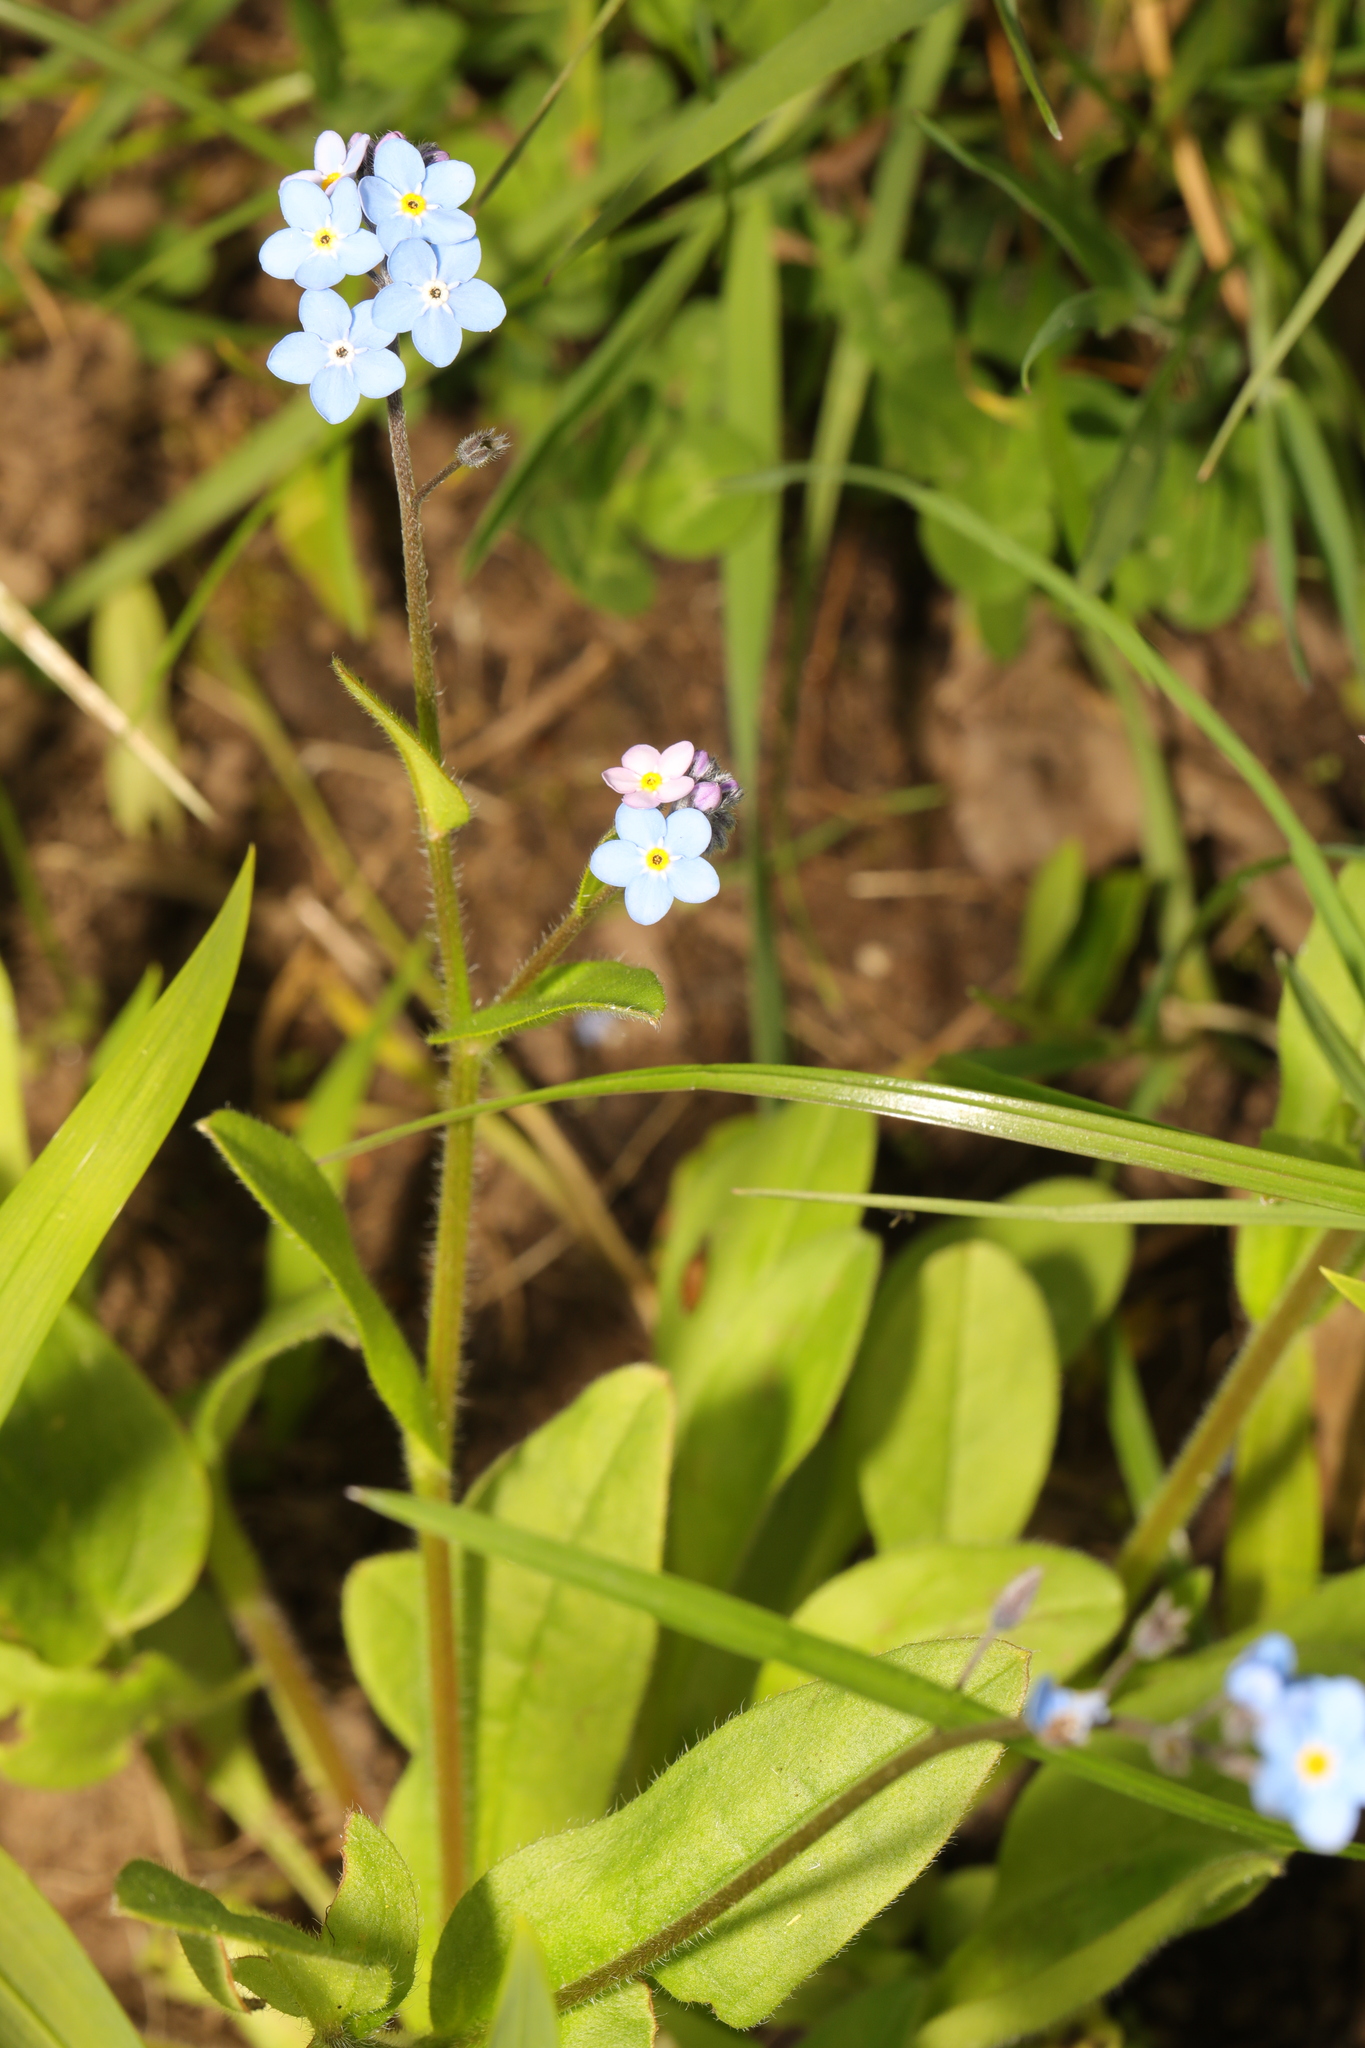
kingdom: Plantae
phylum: Tracheophyta
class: Magnoliopsida
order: Boraginales
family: Boraginaceae
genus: Myosotis
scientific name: Myosotis sylvatica
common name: Wood forget-me-not
